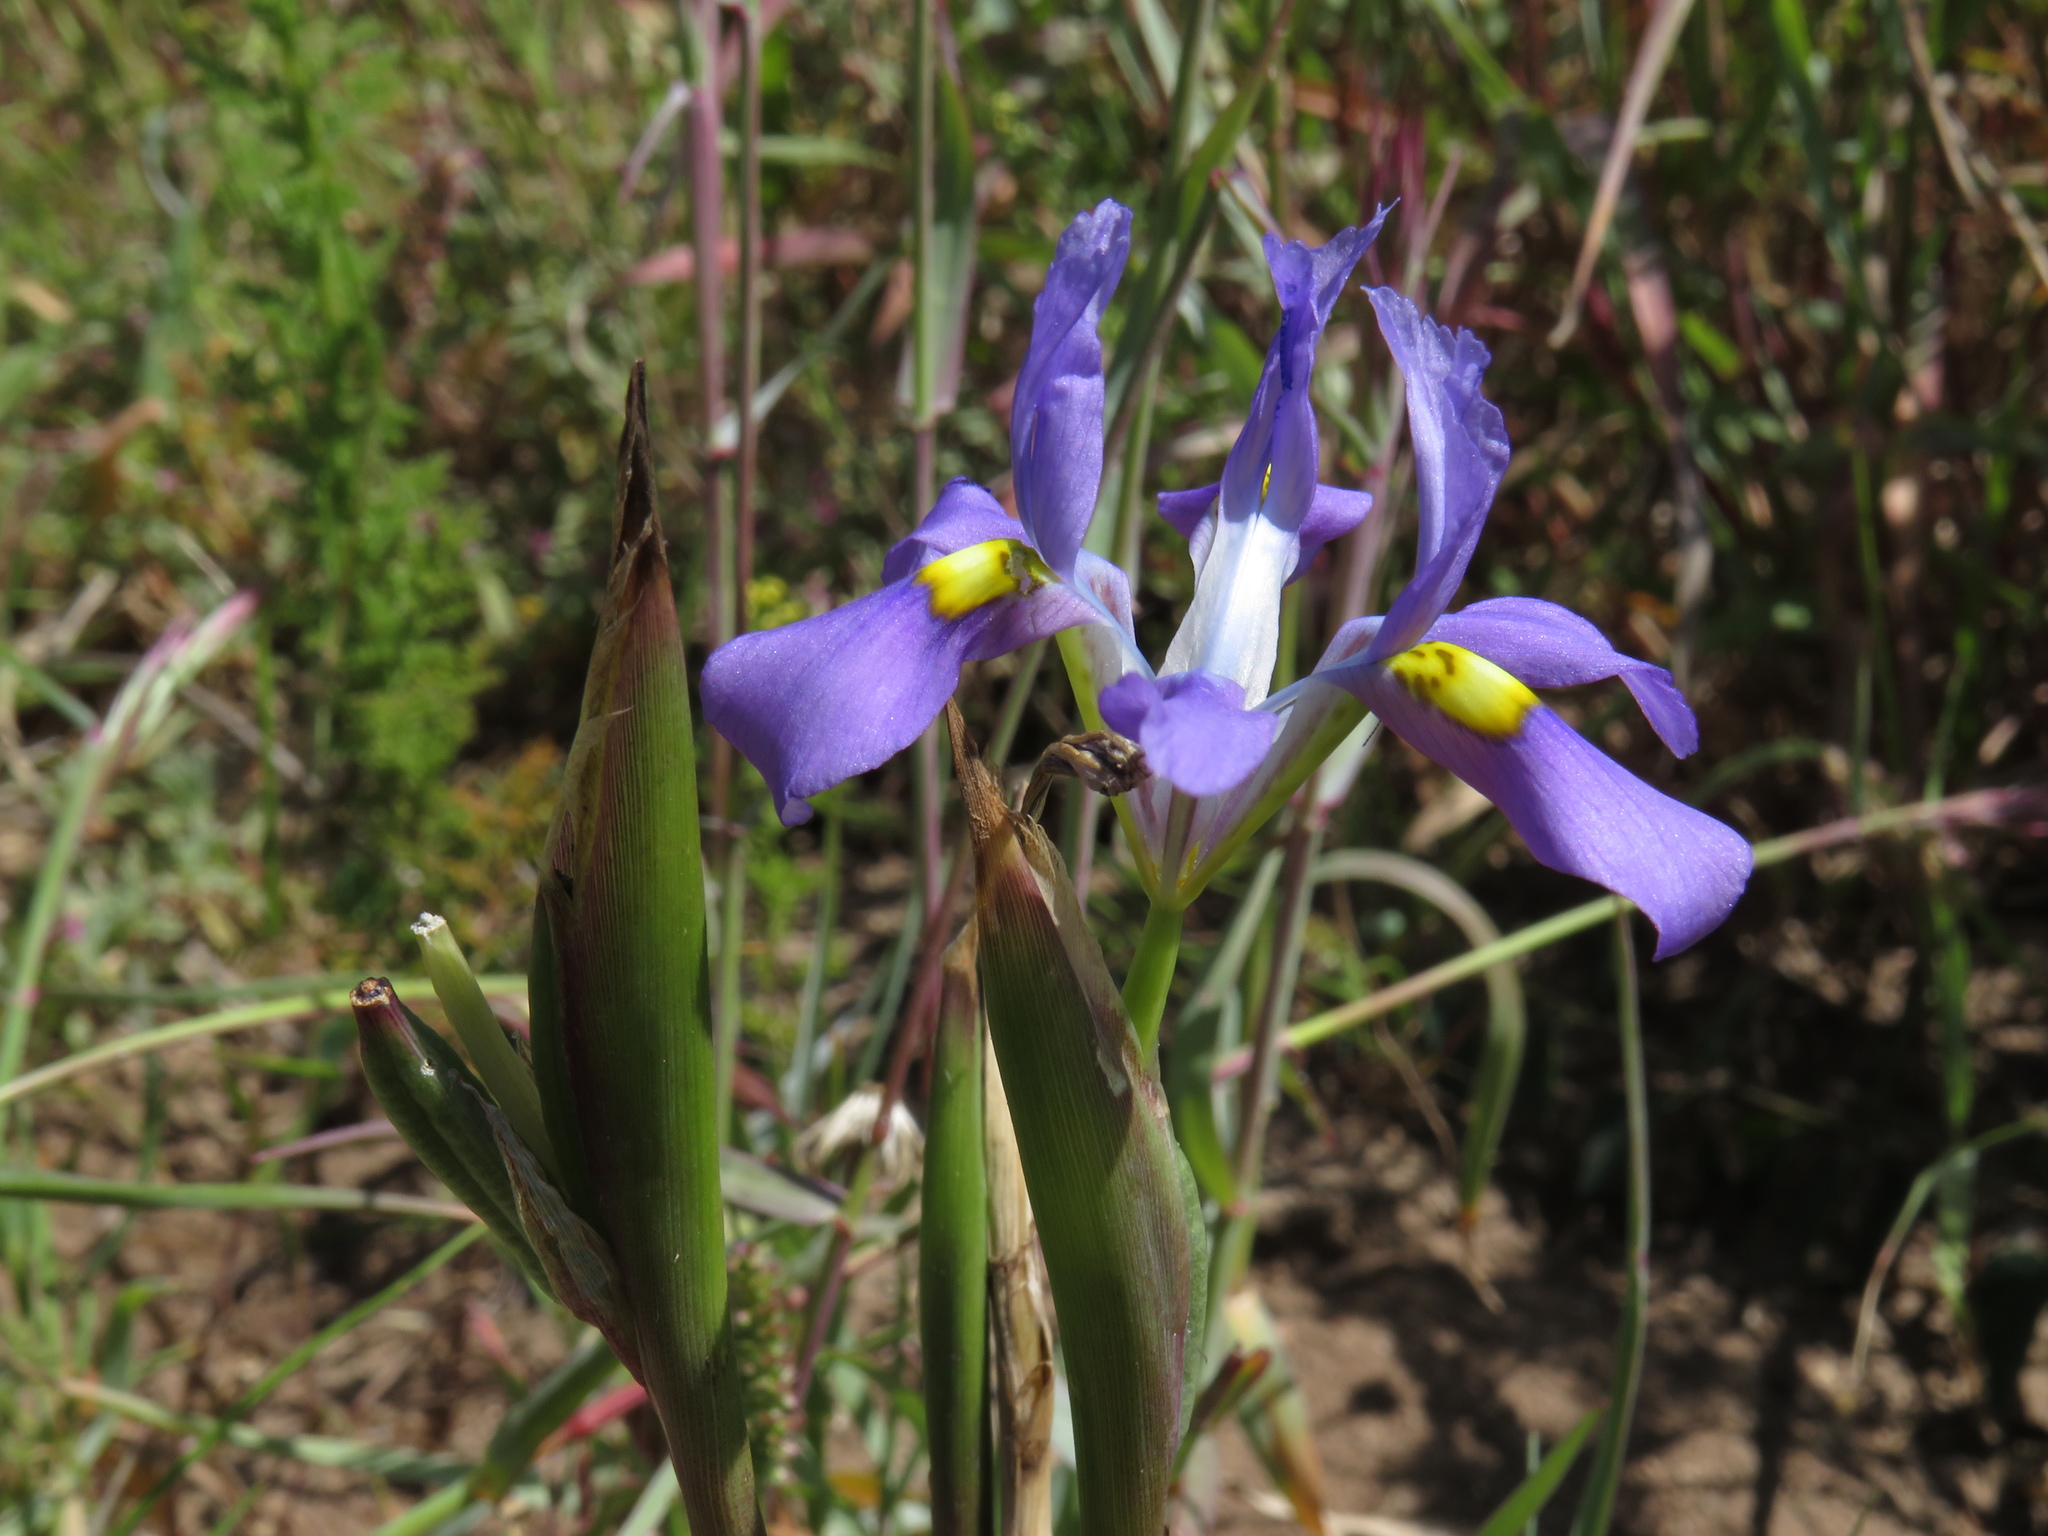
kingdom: Plantae
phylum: Tracheophyta
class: Liliopsida
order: Asparagales
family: Iridaceae
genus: Moraea
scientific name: Moraea fugax
